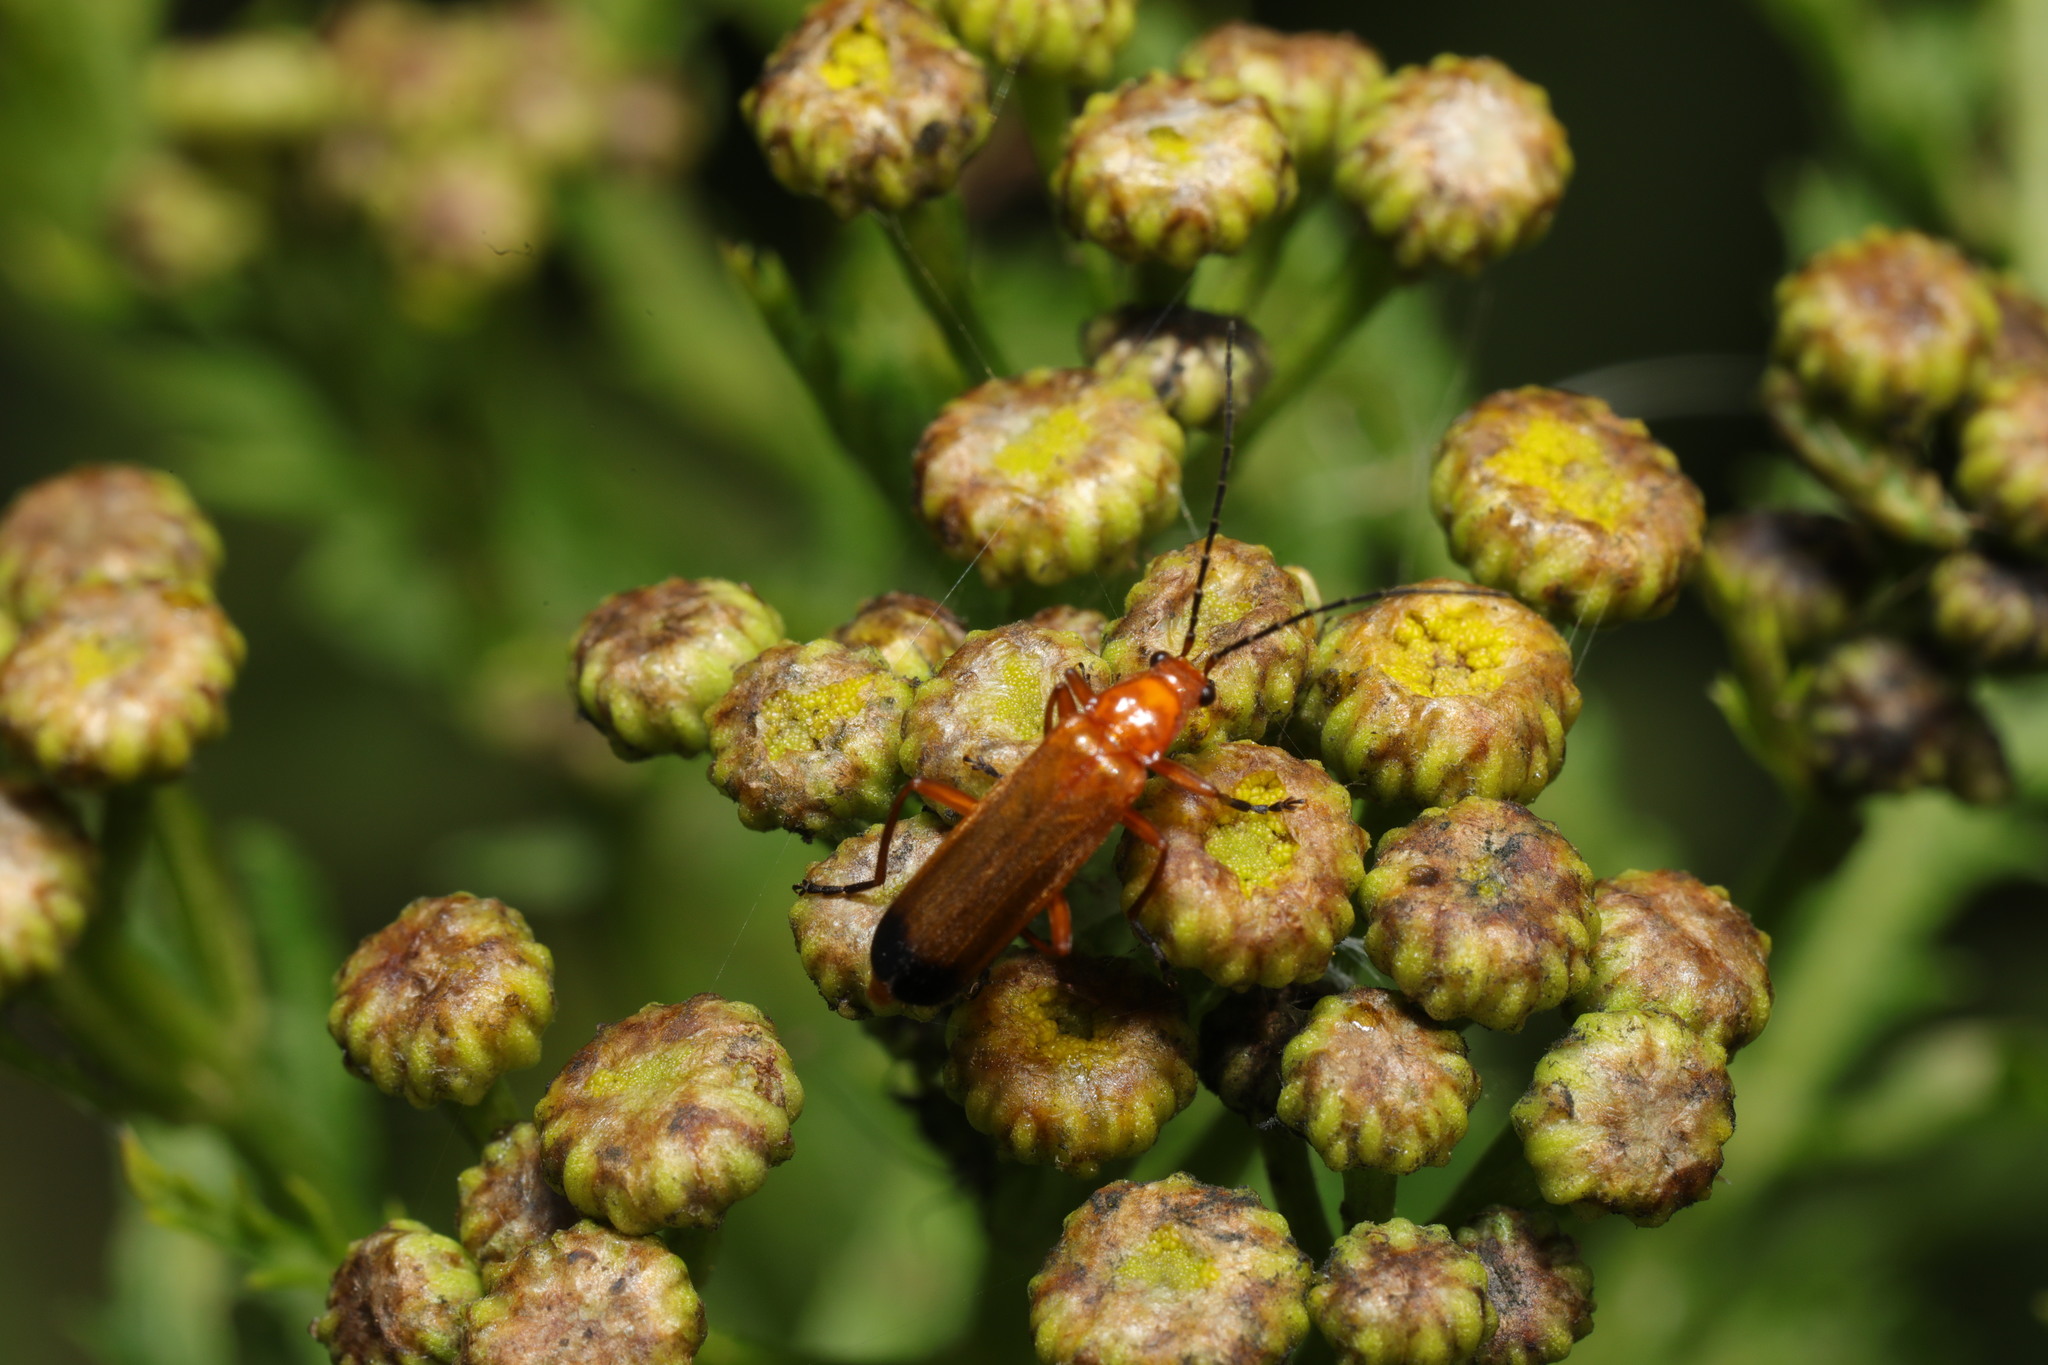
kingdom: Animalia
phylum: Arthropoda
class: Insecta
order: Coleoptera
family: Cantharidae
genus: Rhagonycha
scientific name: Rhagonycha fulva
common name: Common red soldier beetle
